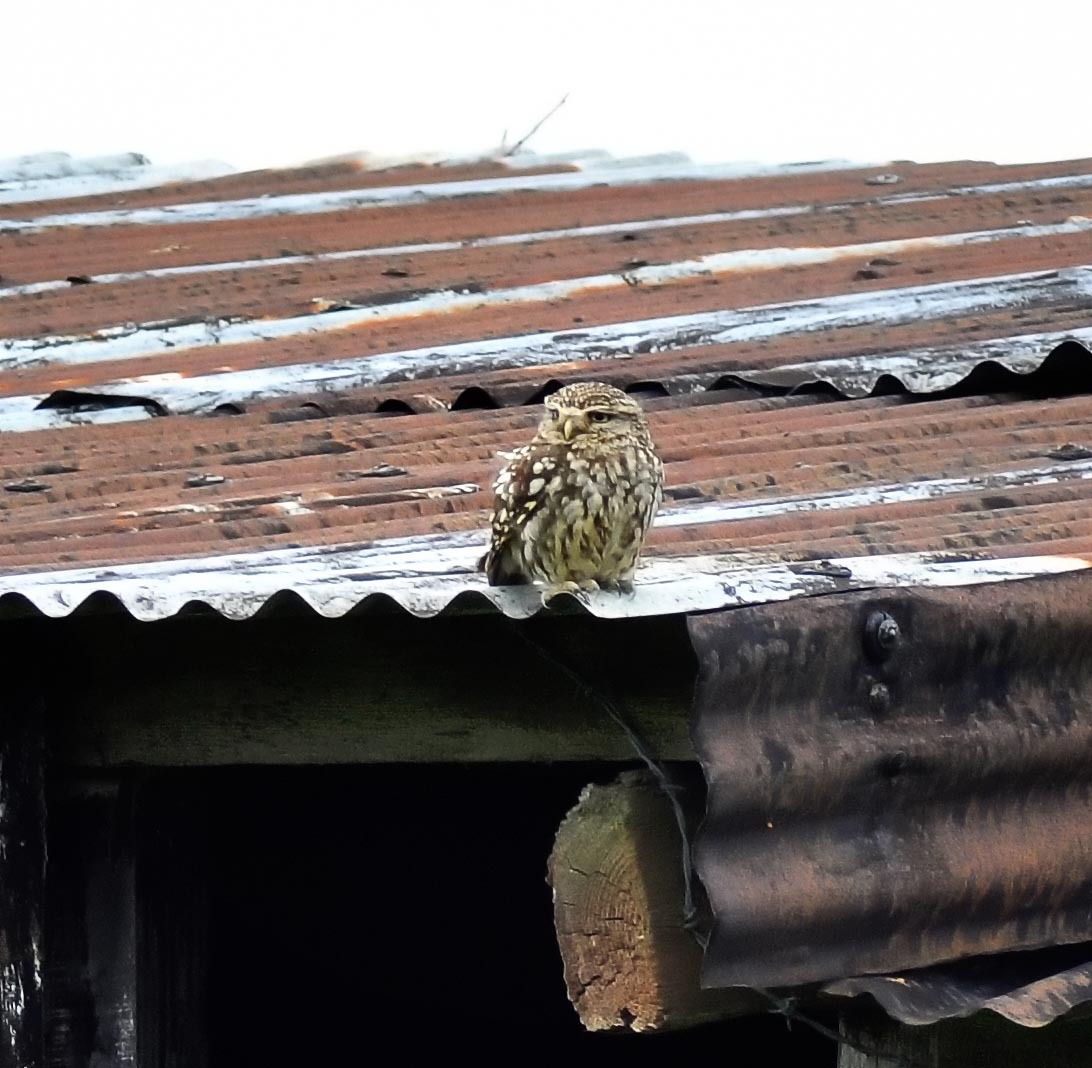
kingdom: Animalia
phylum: Chordata
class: Aves
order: Strigiformes
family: Strigidae
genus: Athene
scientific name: Athene noctua
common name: Little owl
